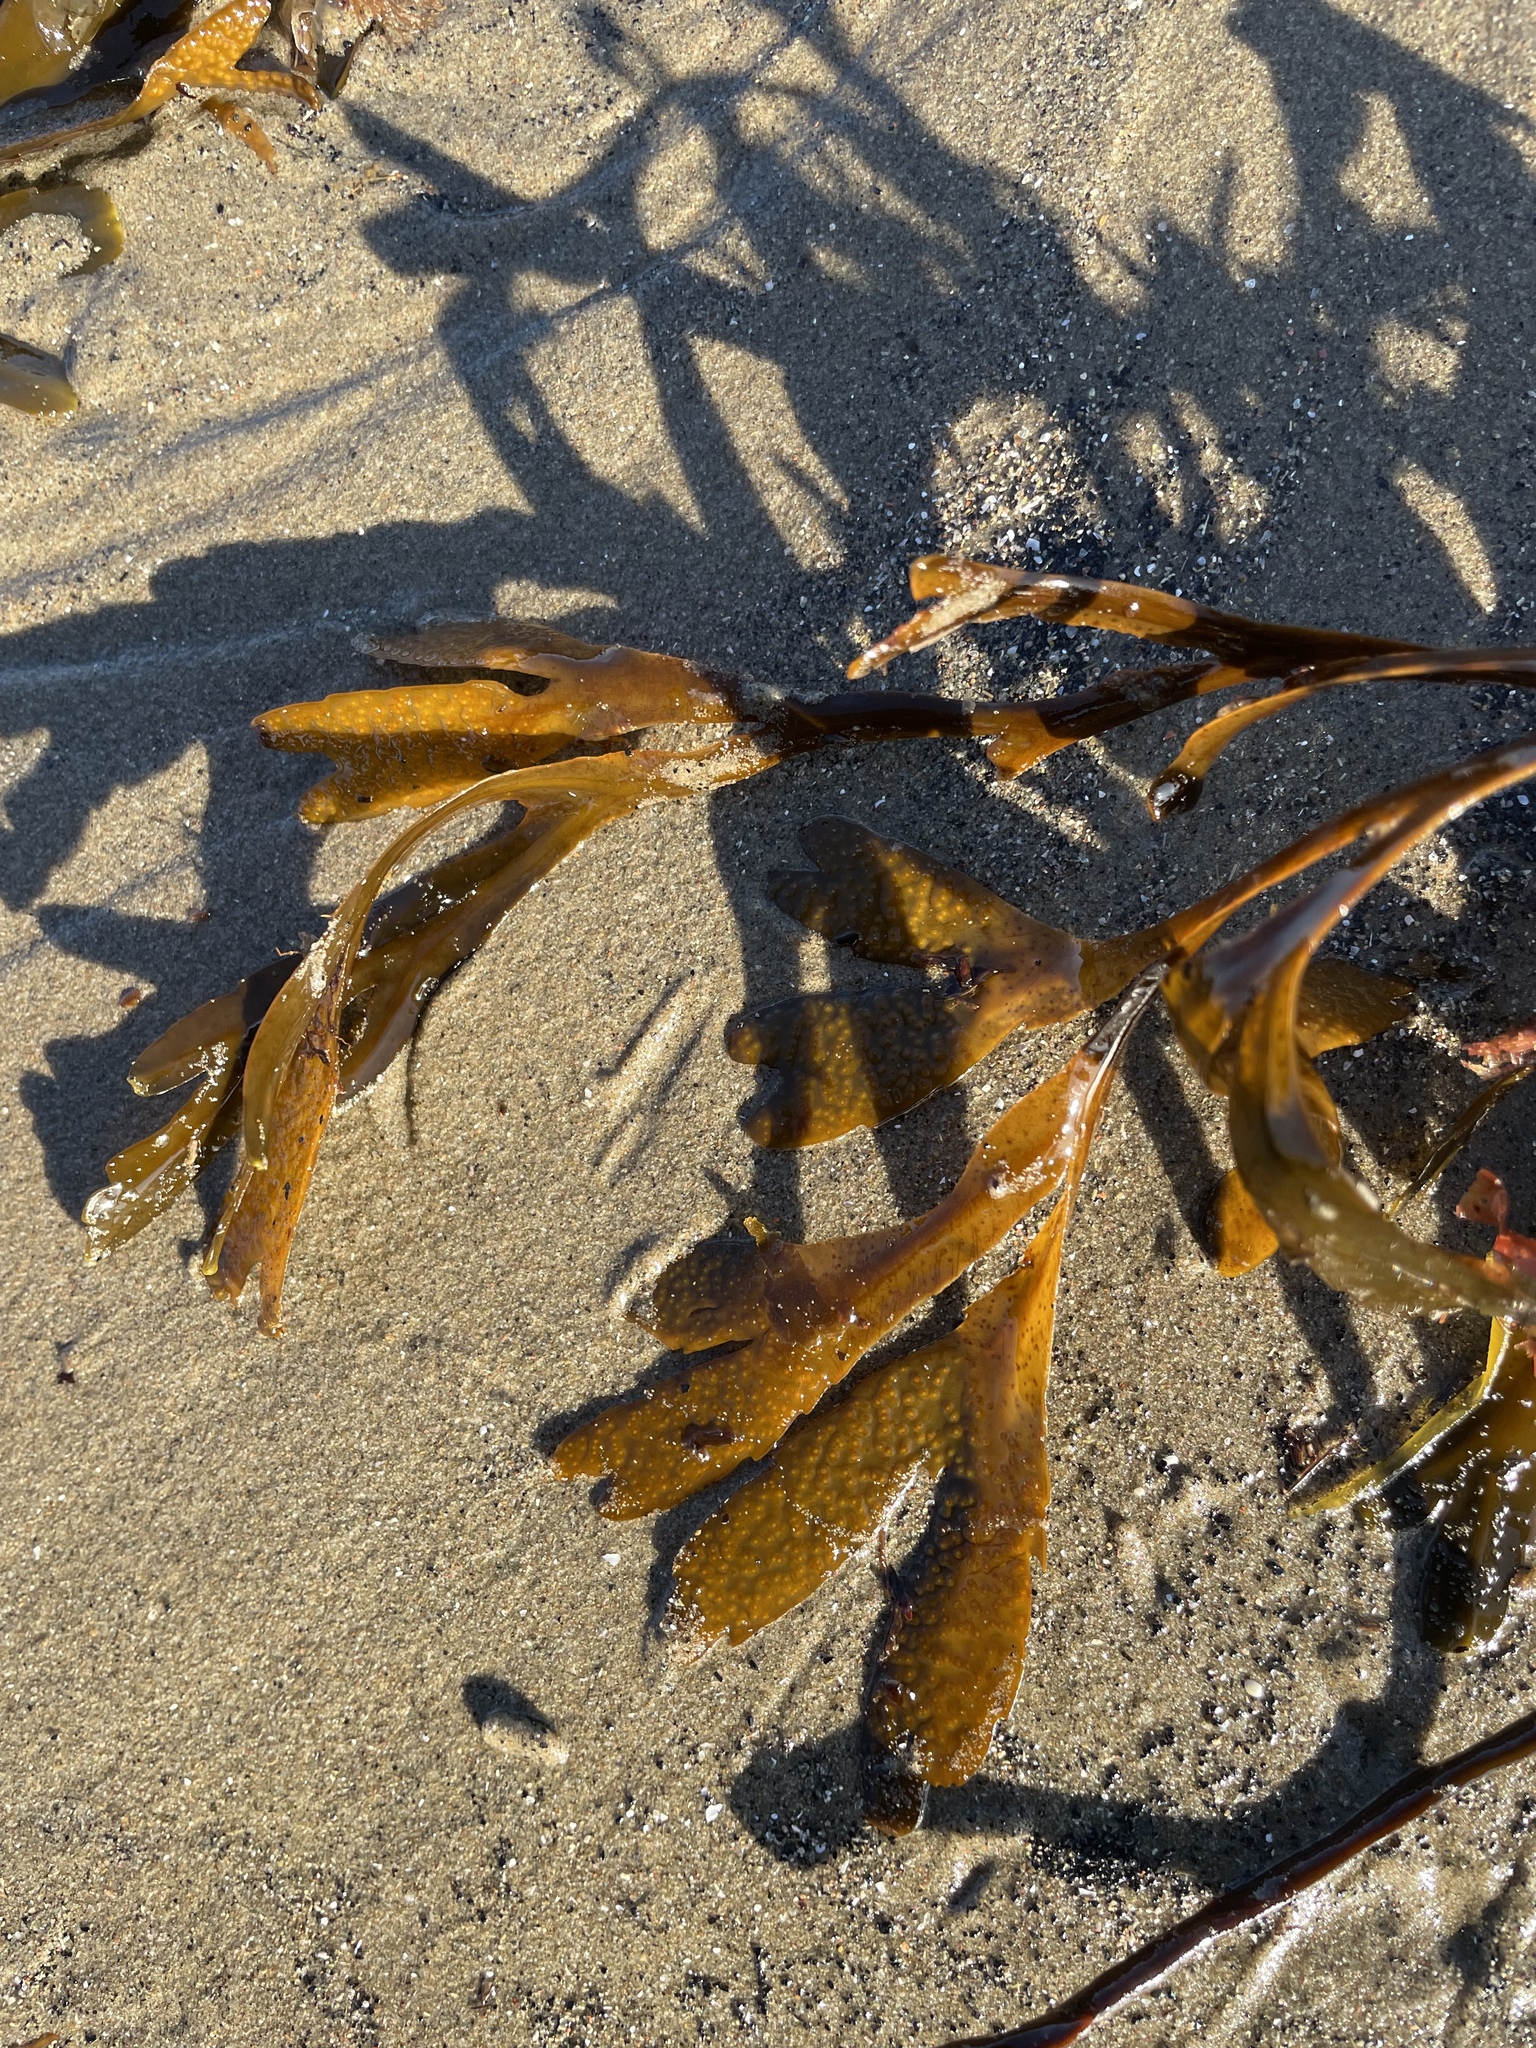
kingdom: Chromista
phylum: Ochrophyta
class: Phaeophyceae
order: Fucales
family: Fucaceae
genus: Fucus
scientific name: Fucus serratus
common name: Toothed wrack
